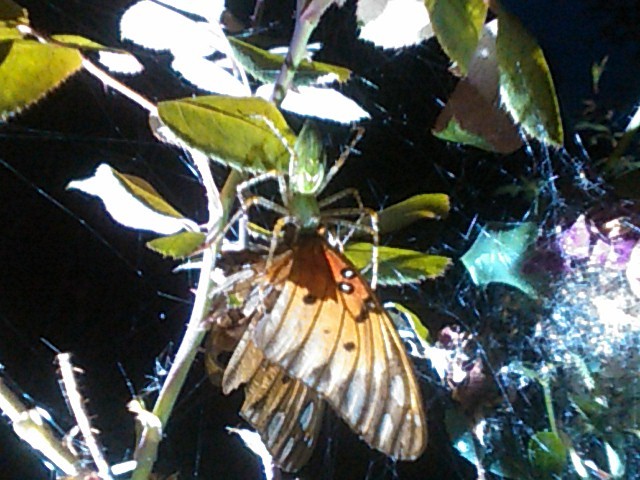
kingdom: Animalia
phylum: Arthropoda
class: Arachnida
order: Araneae
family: Oxyopidae
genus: Peucetia
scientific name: Peucetia viridans
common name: Lynx spiders
